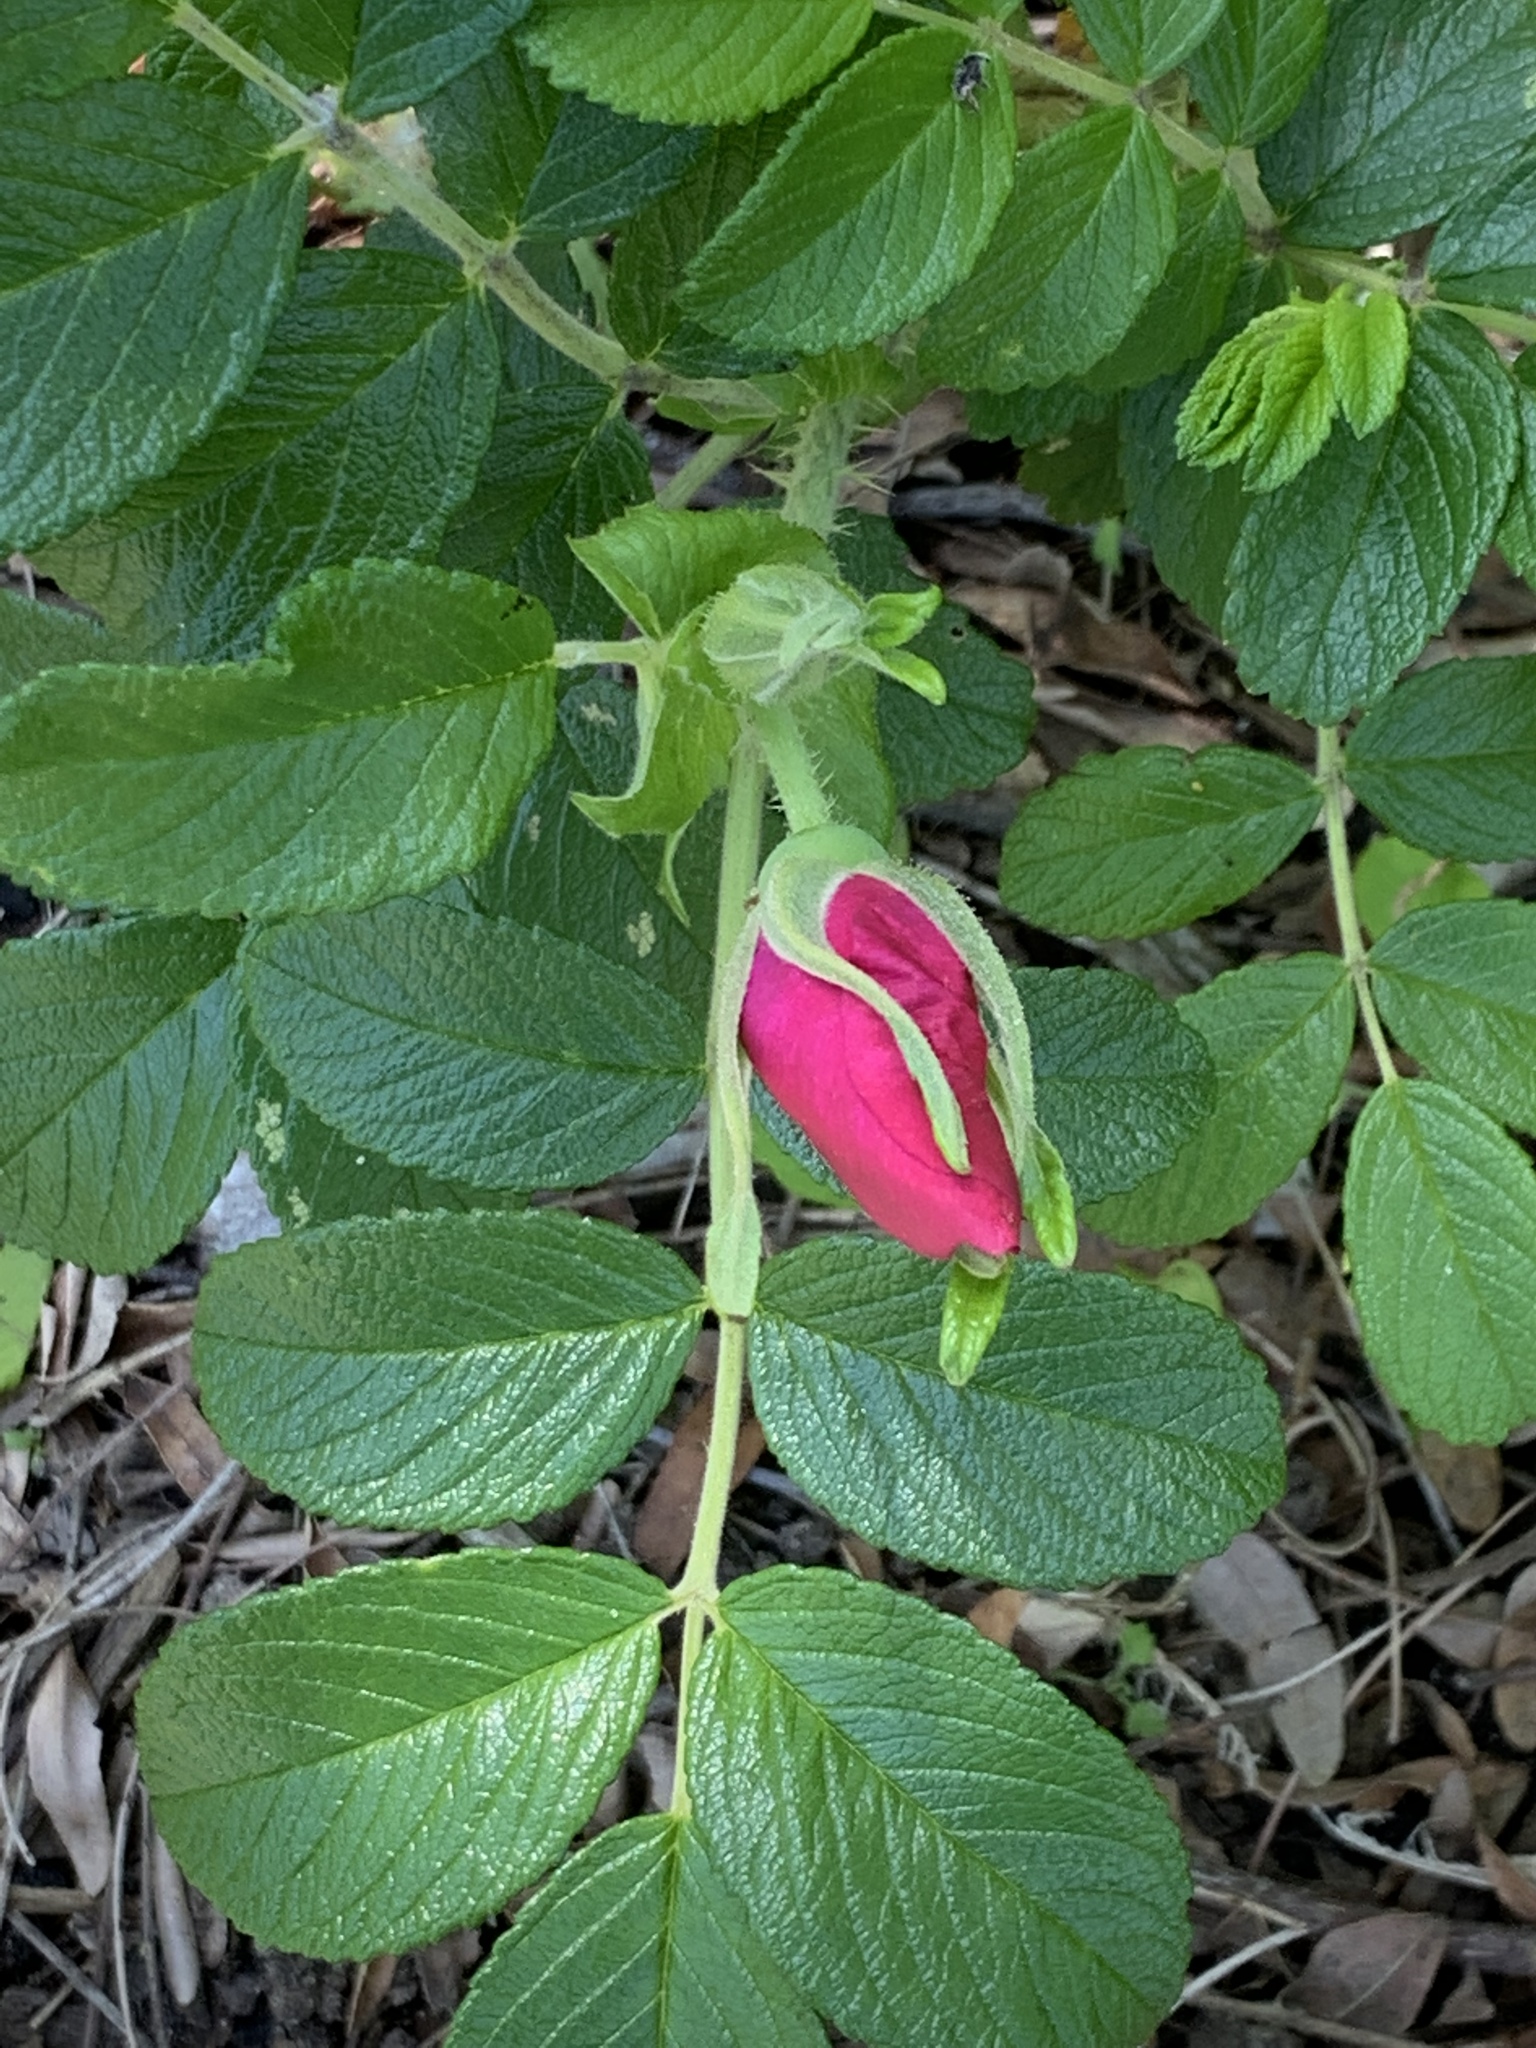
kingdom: Plantae
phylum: Tracheophyta
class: Magnoliopsida
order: Rosales
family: Rosaceae
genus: Rosa
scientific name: Rosa rugosa
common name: Japanese rose
